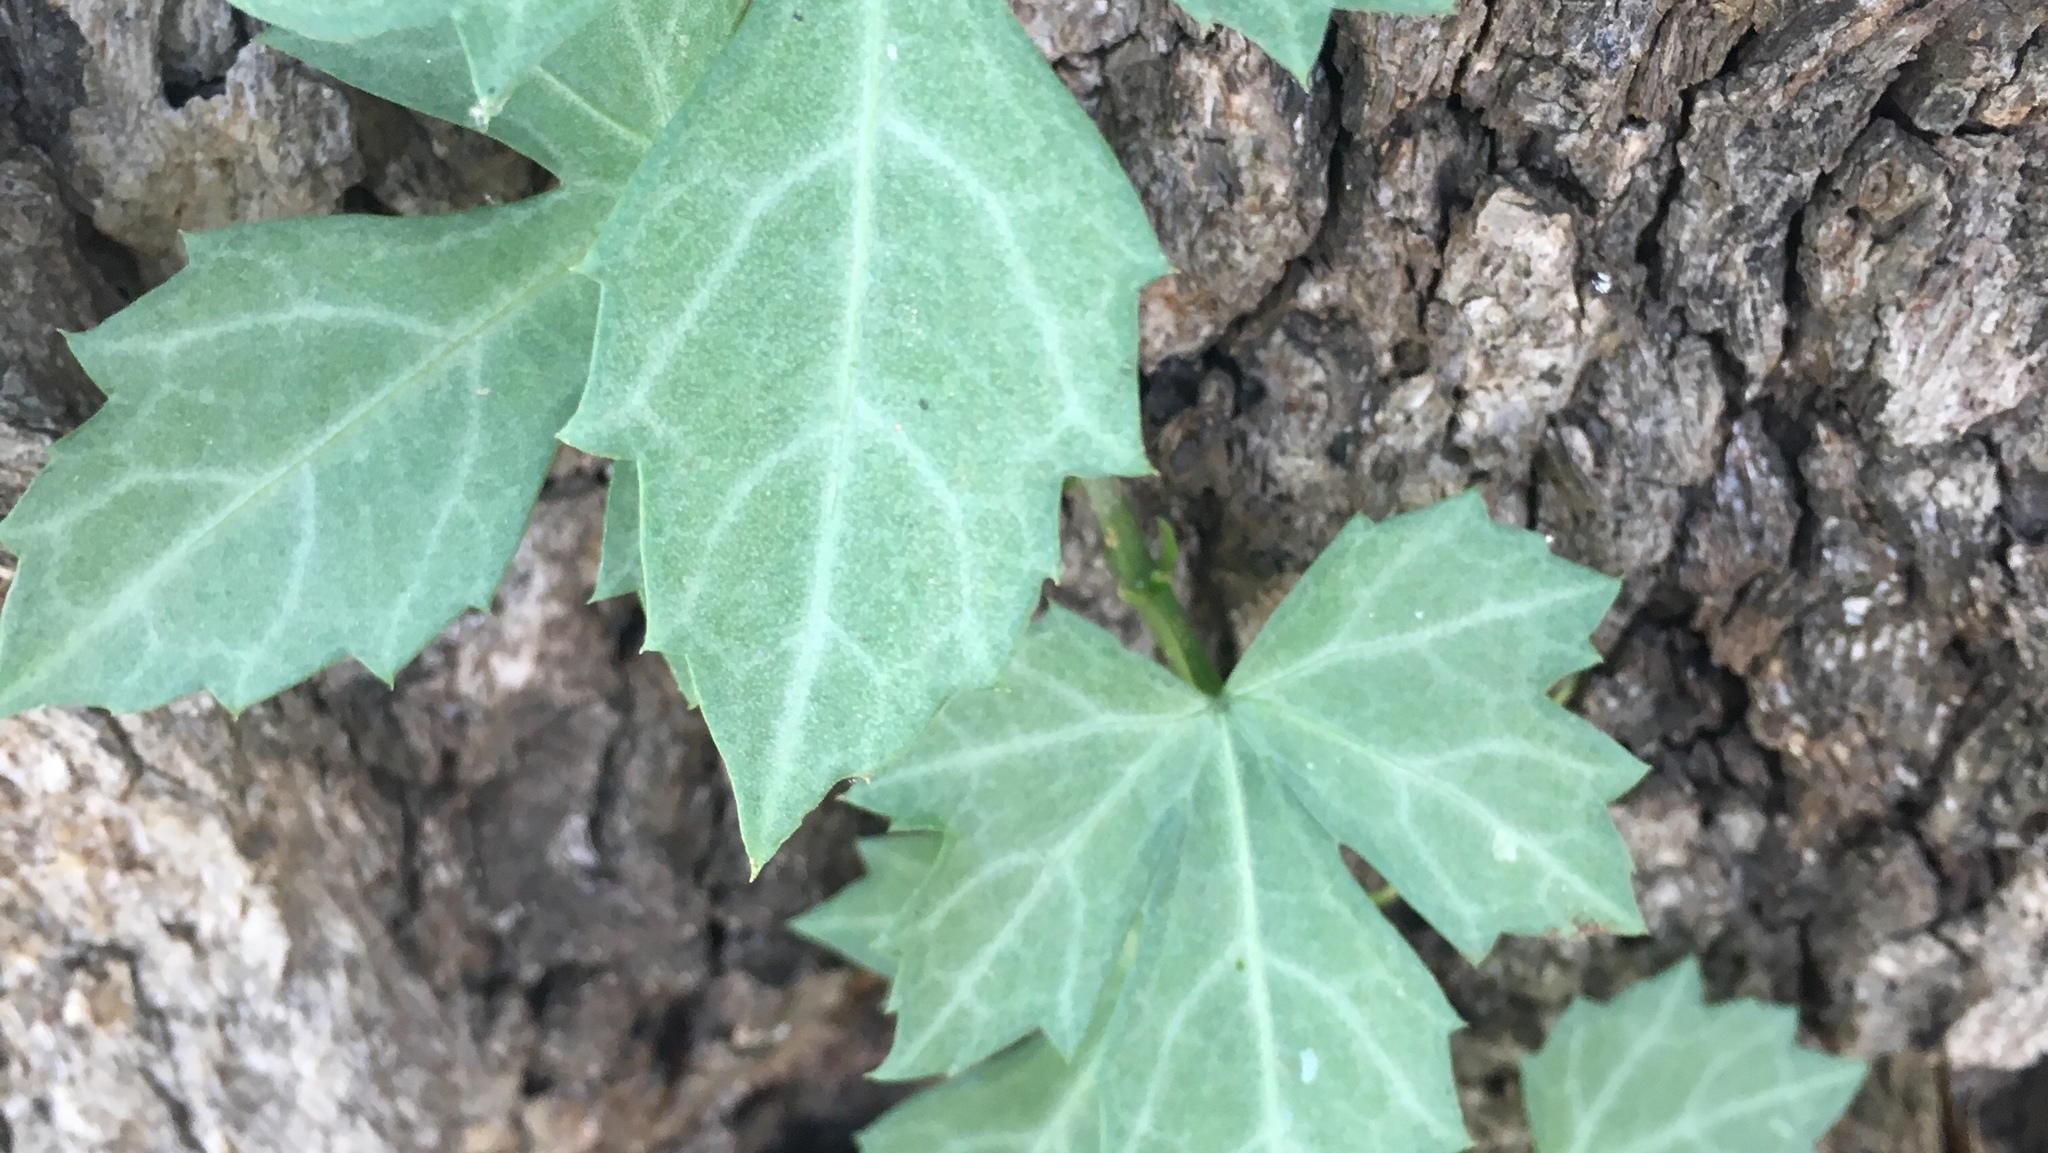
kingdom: Plantae
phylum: Tracheophyta
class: Magnoliopsida
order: Vitales
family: Vitaceae
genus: Cissus
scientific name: Cissus trifoliata
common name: Vine-sorrel
